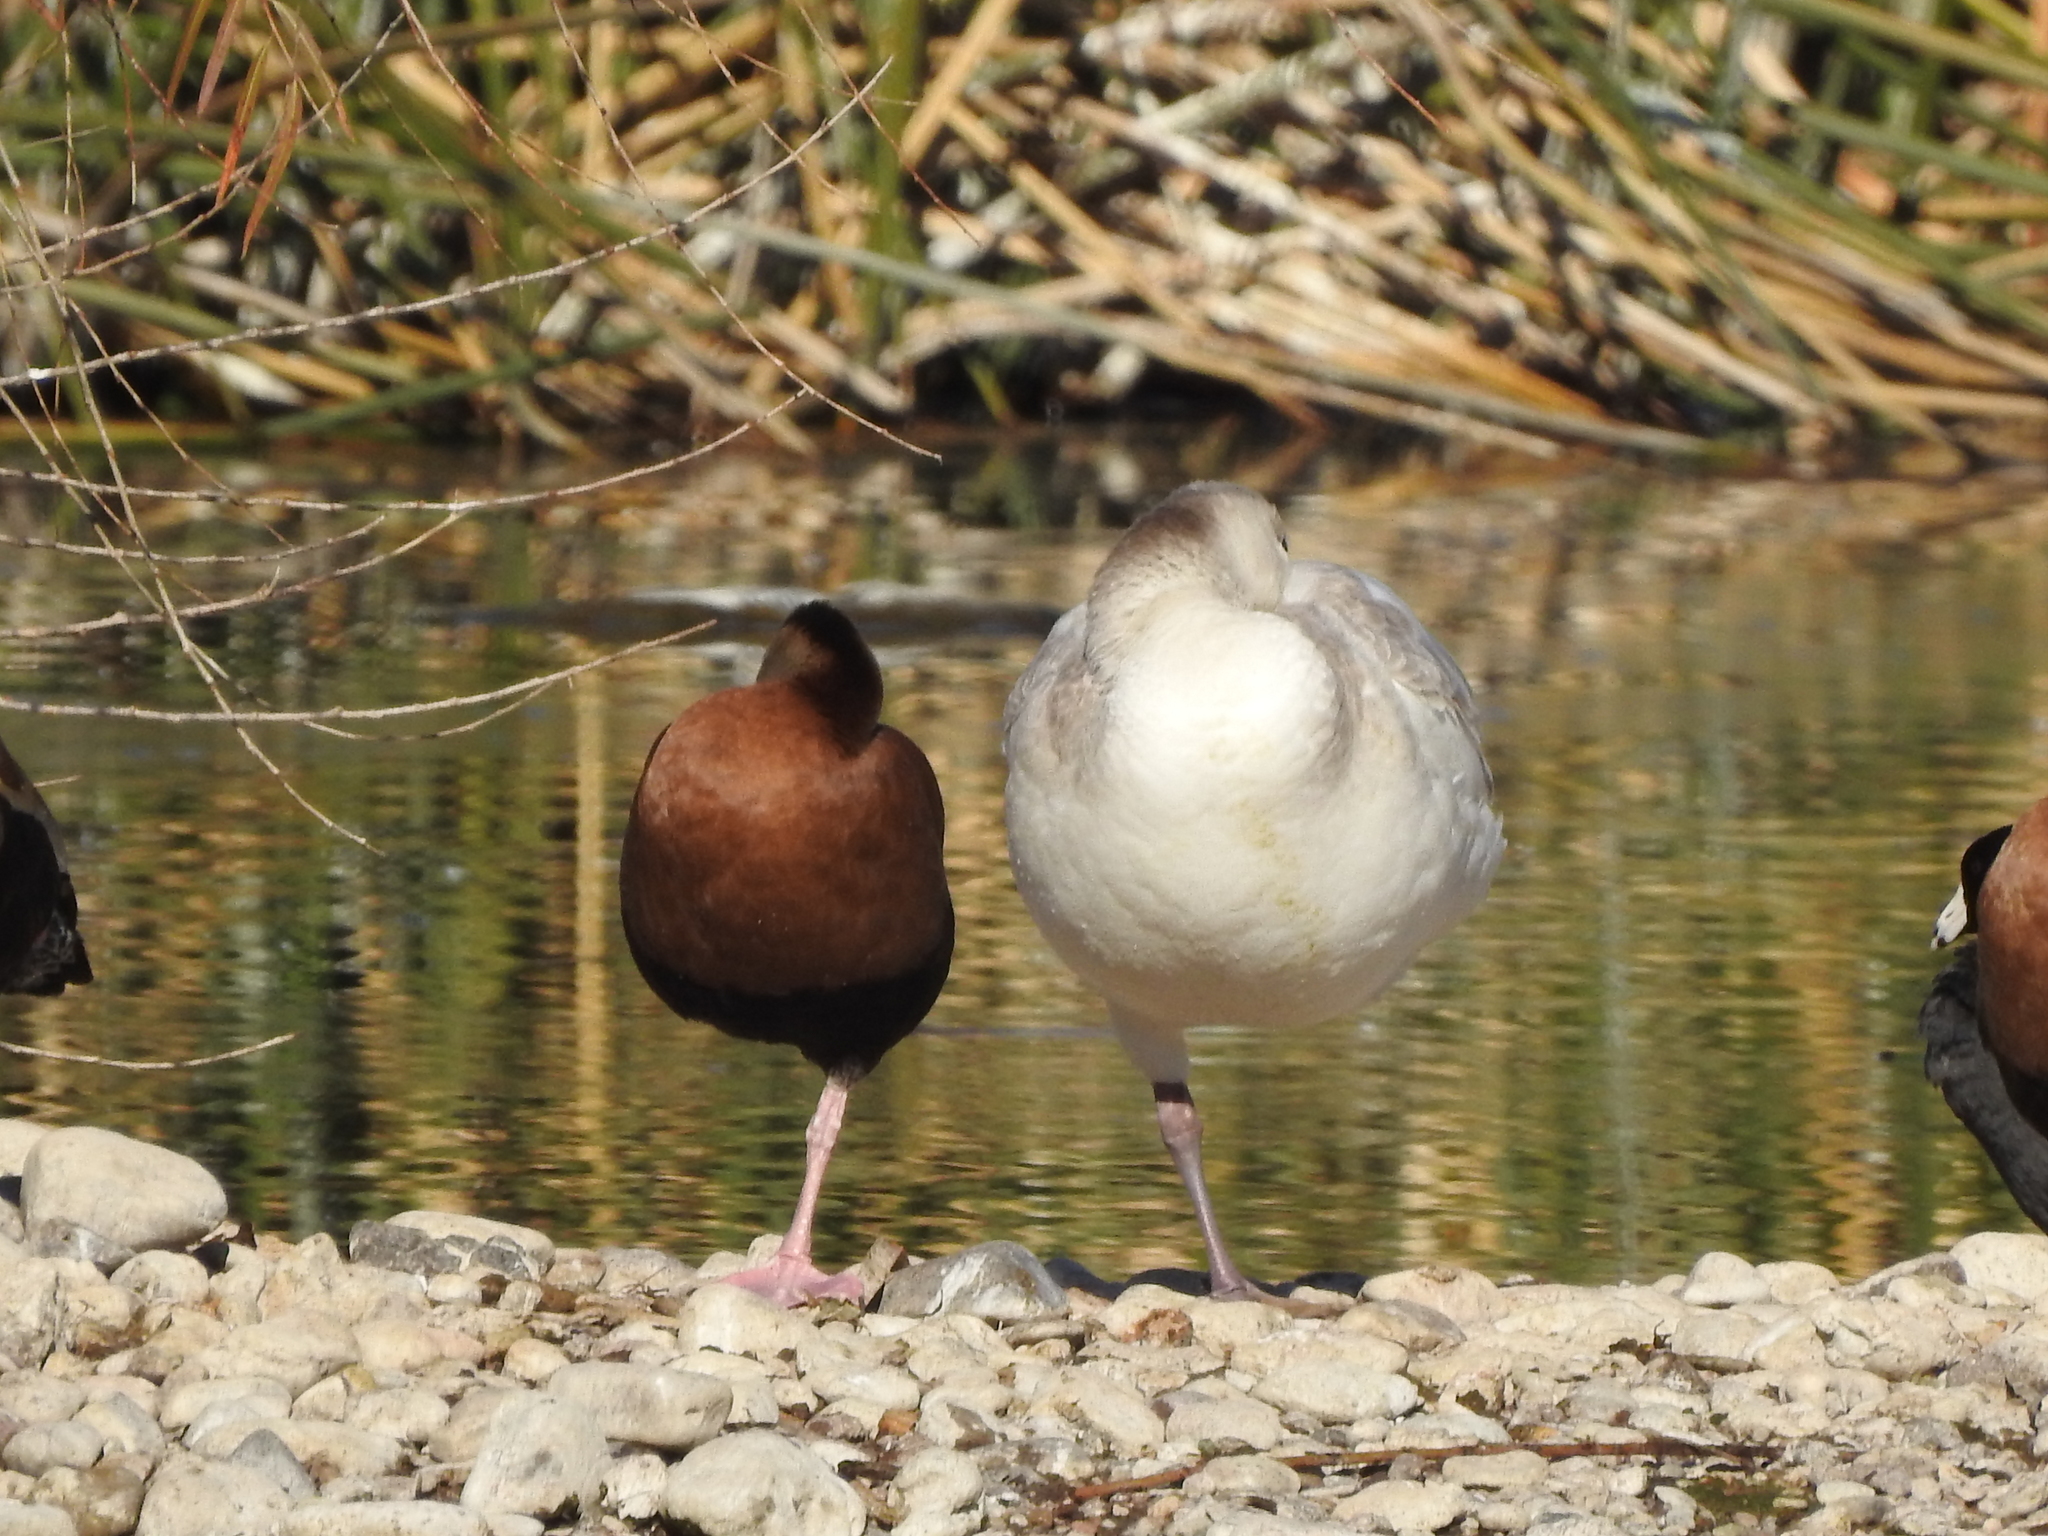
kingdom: Animalia
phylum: Chordata
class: Aves
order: Anseriformes
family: Anatidae
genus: Anser
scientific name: Anser caerulescens
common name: Snow goose
